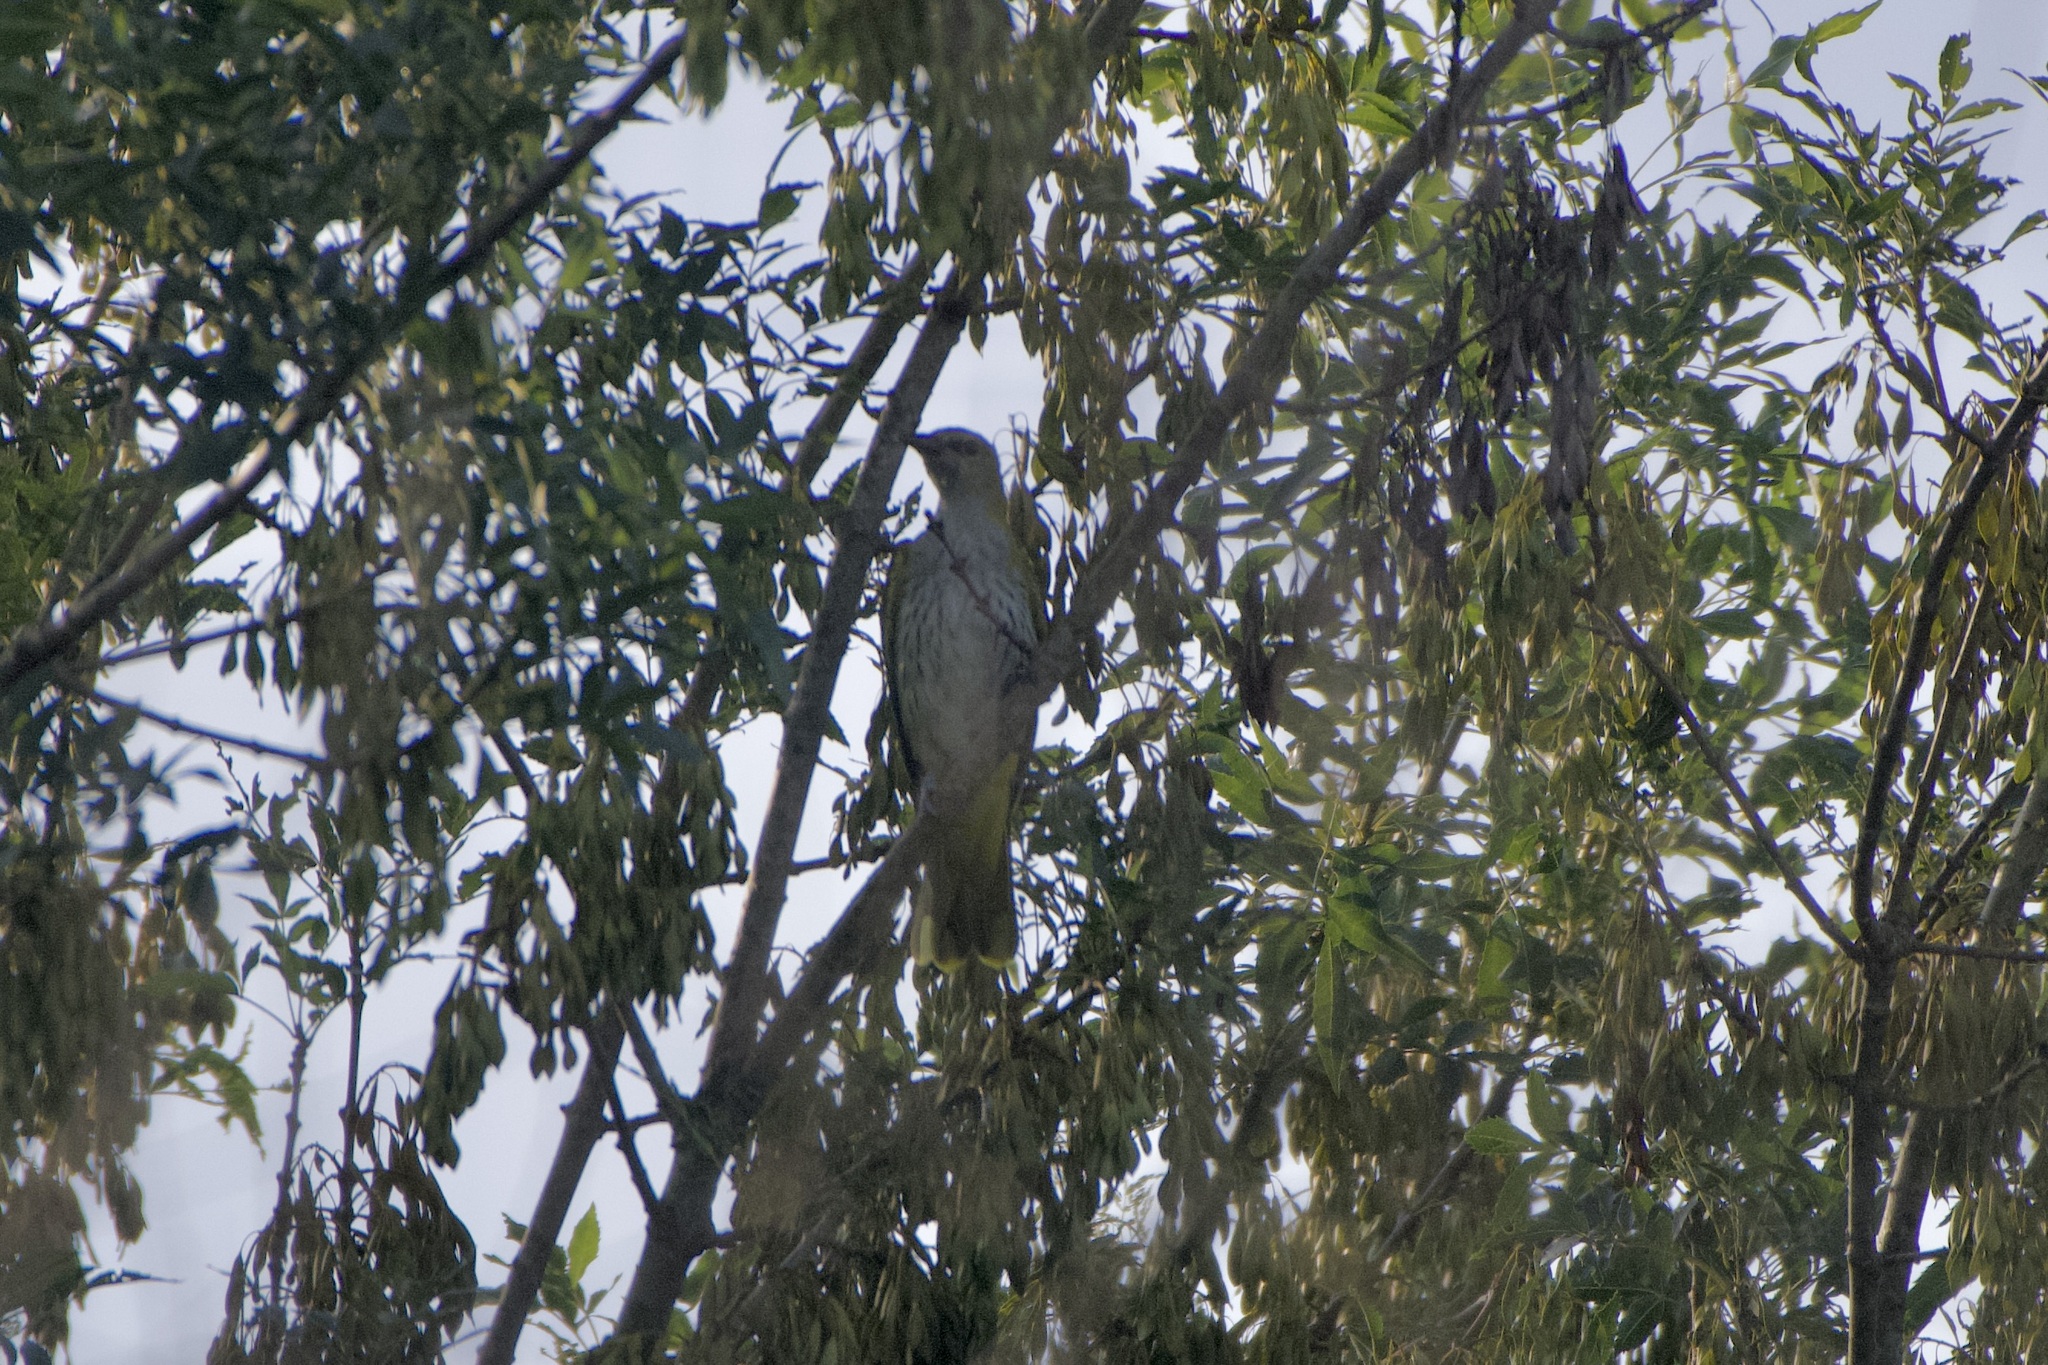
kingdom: Animalia
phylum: Chordata
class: Aves
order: Passeriformes
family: Oriolidae
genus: Oriolus
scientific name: Oriolus oriolus
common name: Eurasian golden oriole
